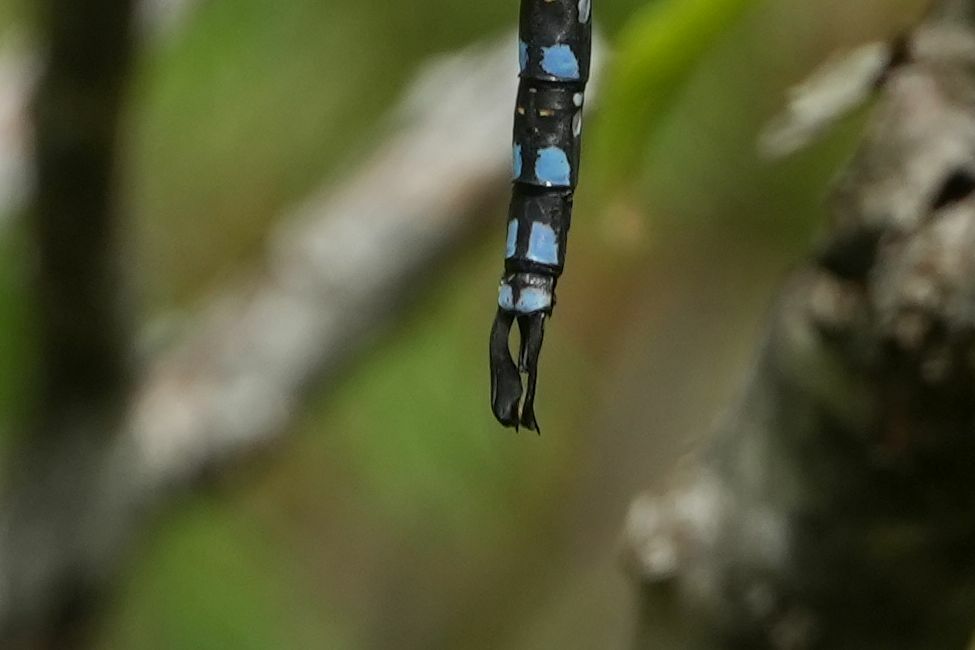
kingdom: Animalia
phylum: Arthropoda
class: Insecta
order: Odonata
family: Aeshnidae
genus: Aeshna
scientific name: Aeshna constricta
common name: Lance-tipped darner
